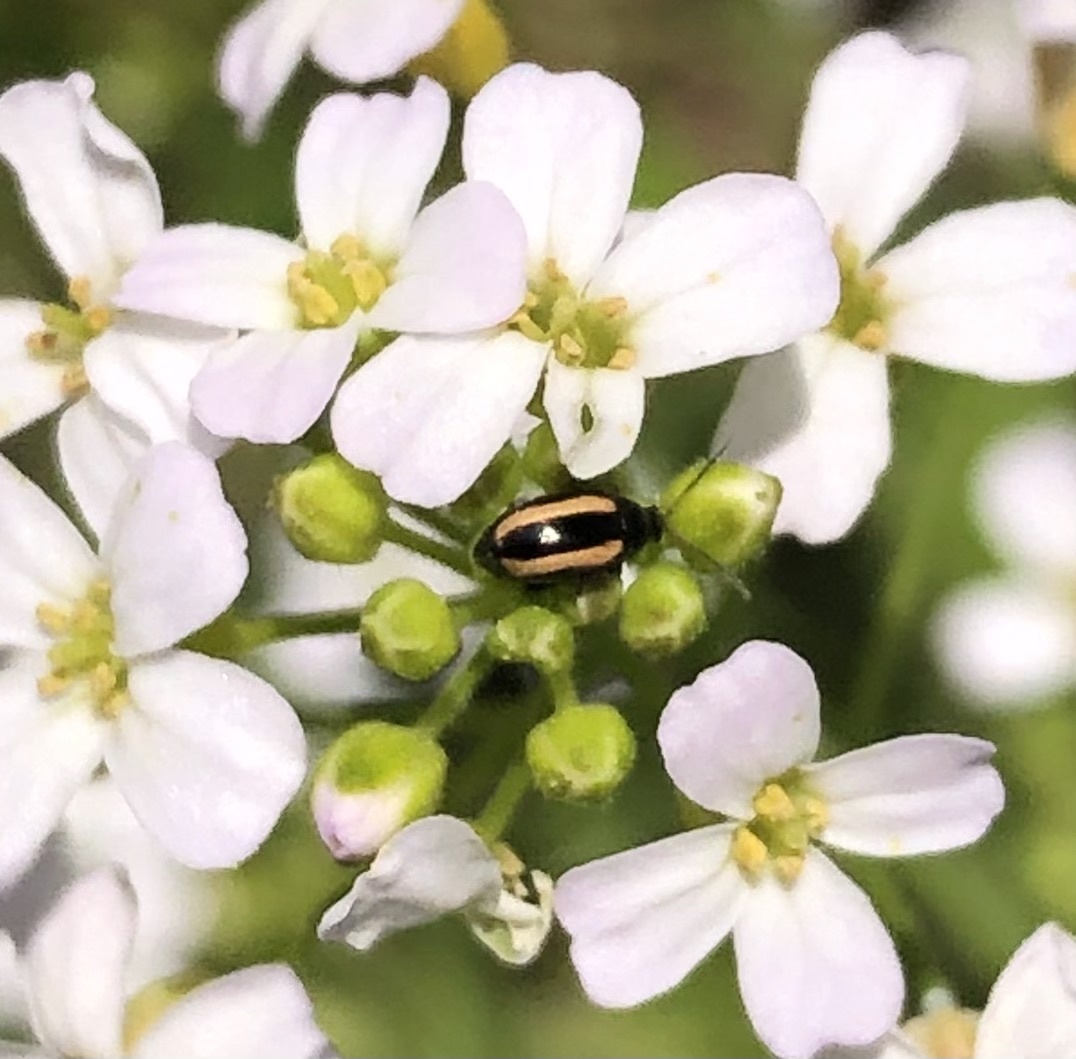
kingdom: Animalia
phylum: Arthropoda
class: Insecta
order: Coleoptera
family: Chrysomelidae
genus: Phyllotreta
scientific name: Phyllotreta vittula
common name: Barley flea beetle
